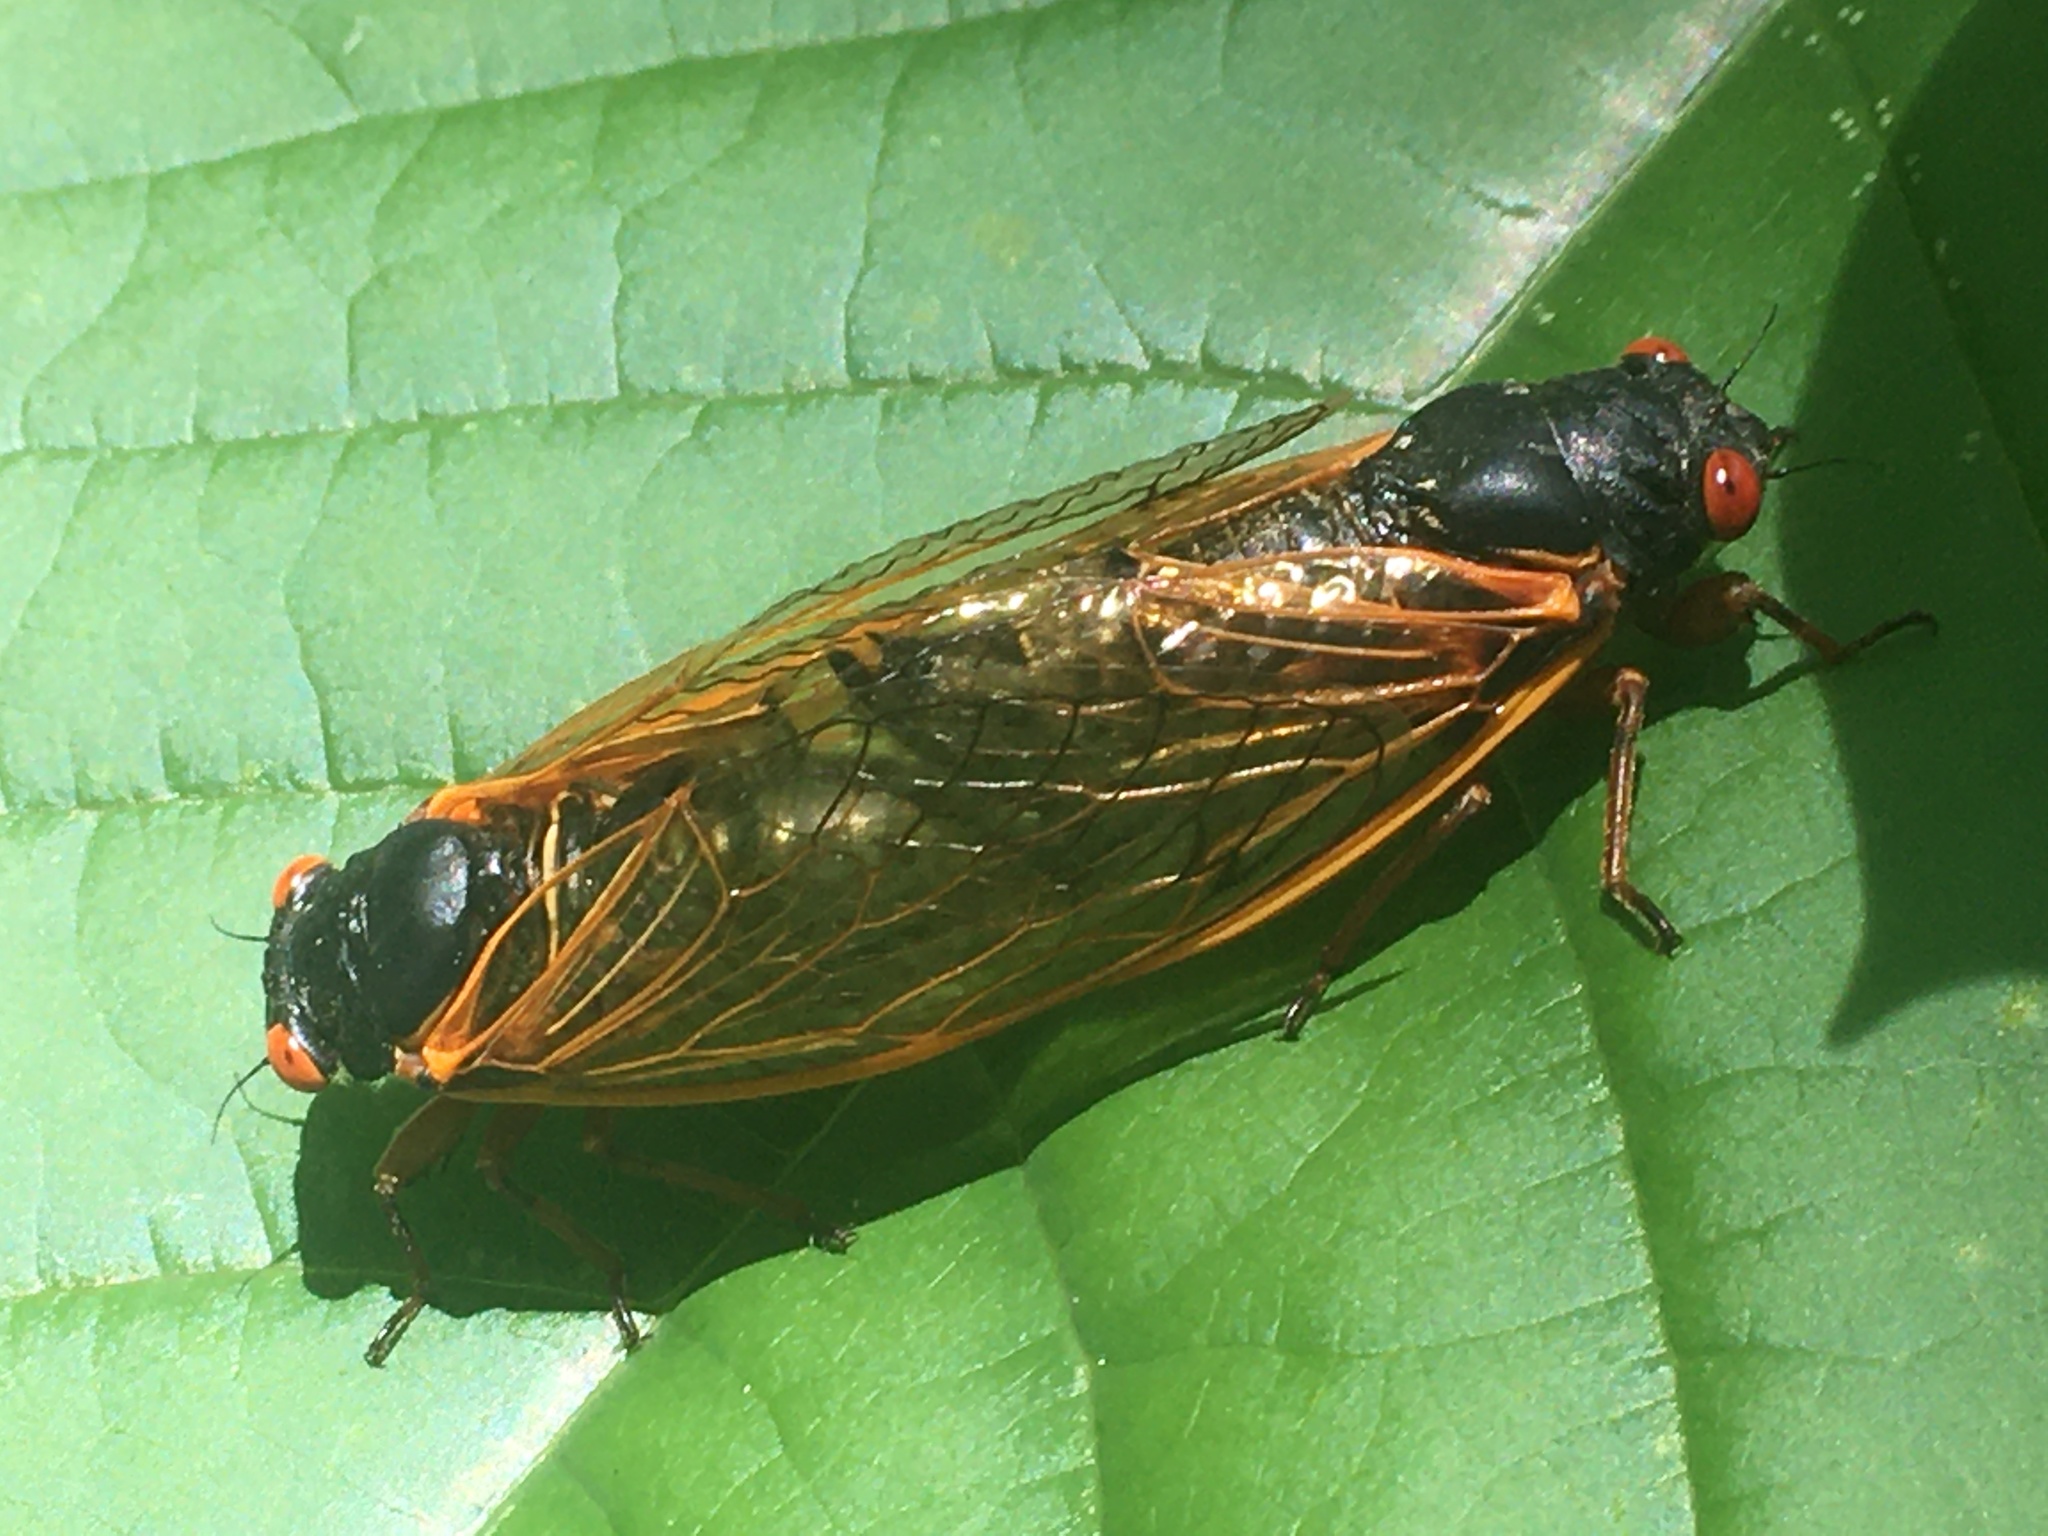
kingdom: Animalia
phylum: Arthropoda
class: Insecta
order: Hemiptera
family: Cicadidae
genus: Magicicada
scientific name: Magicicada
